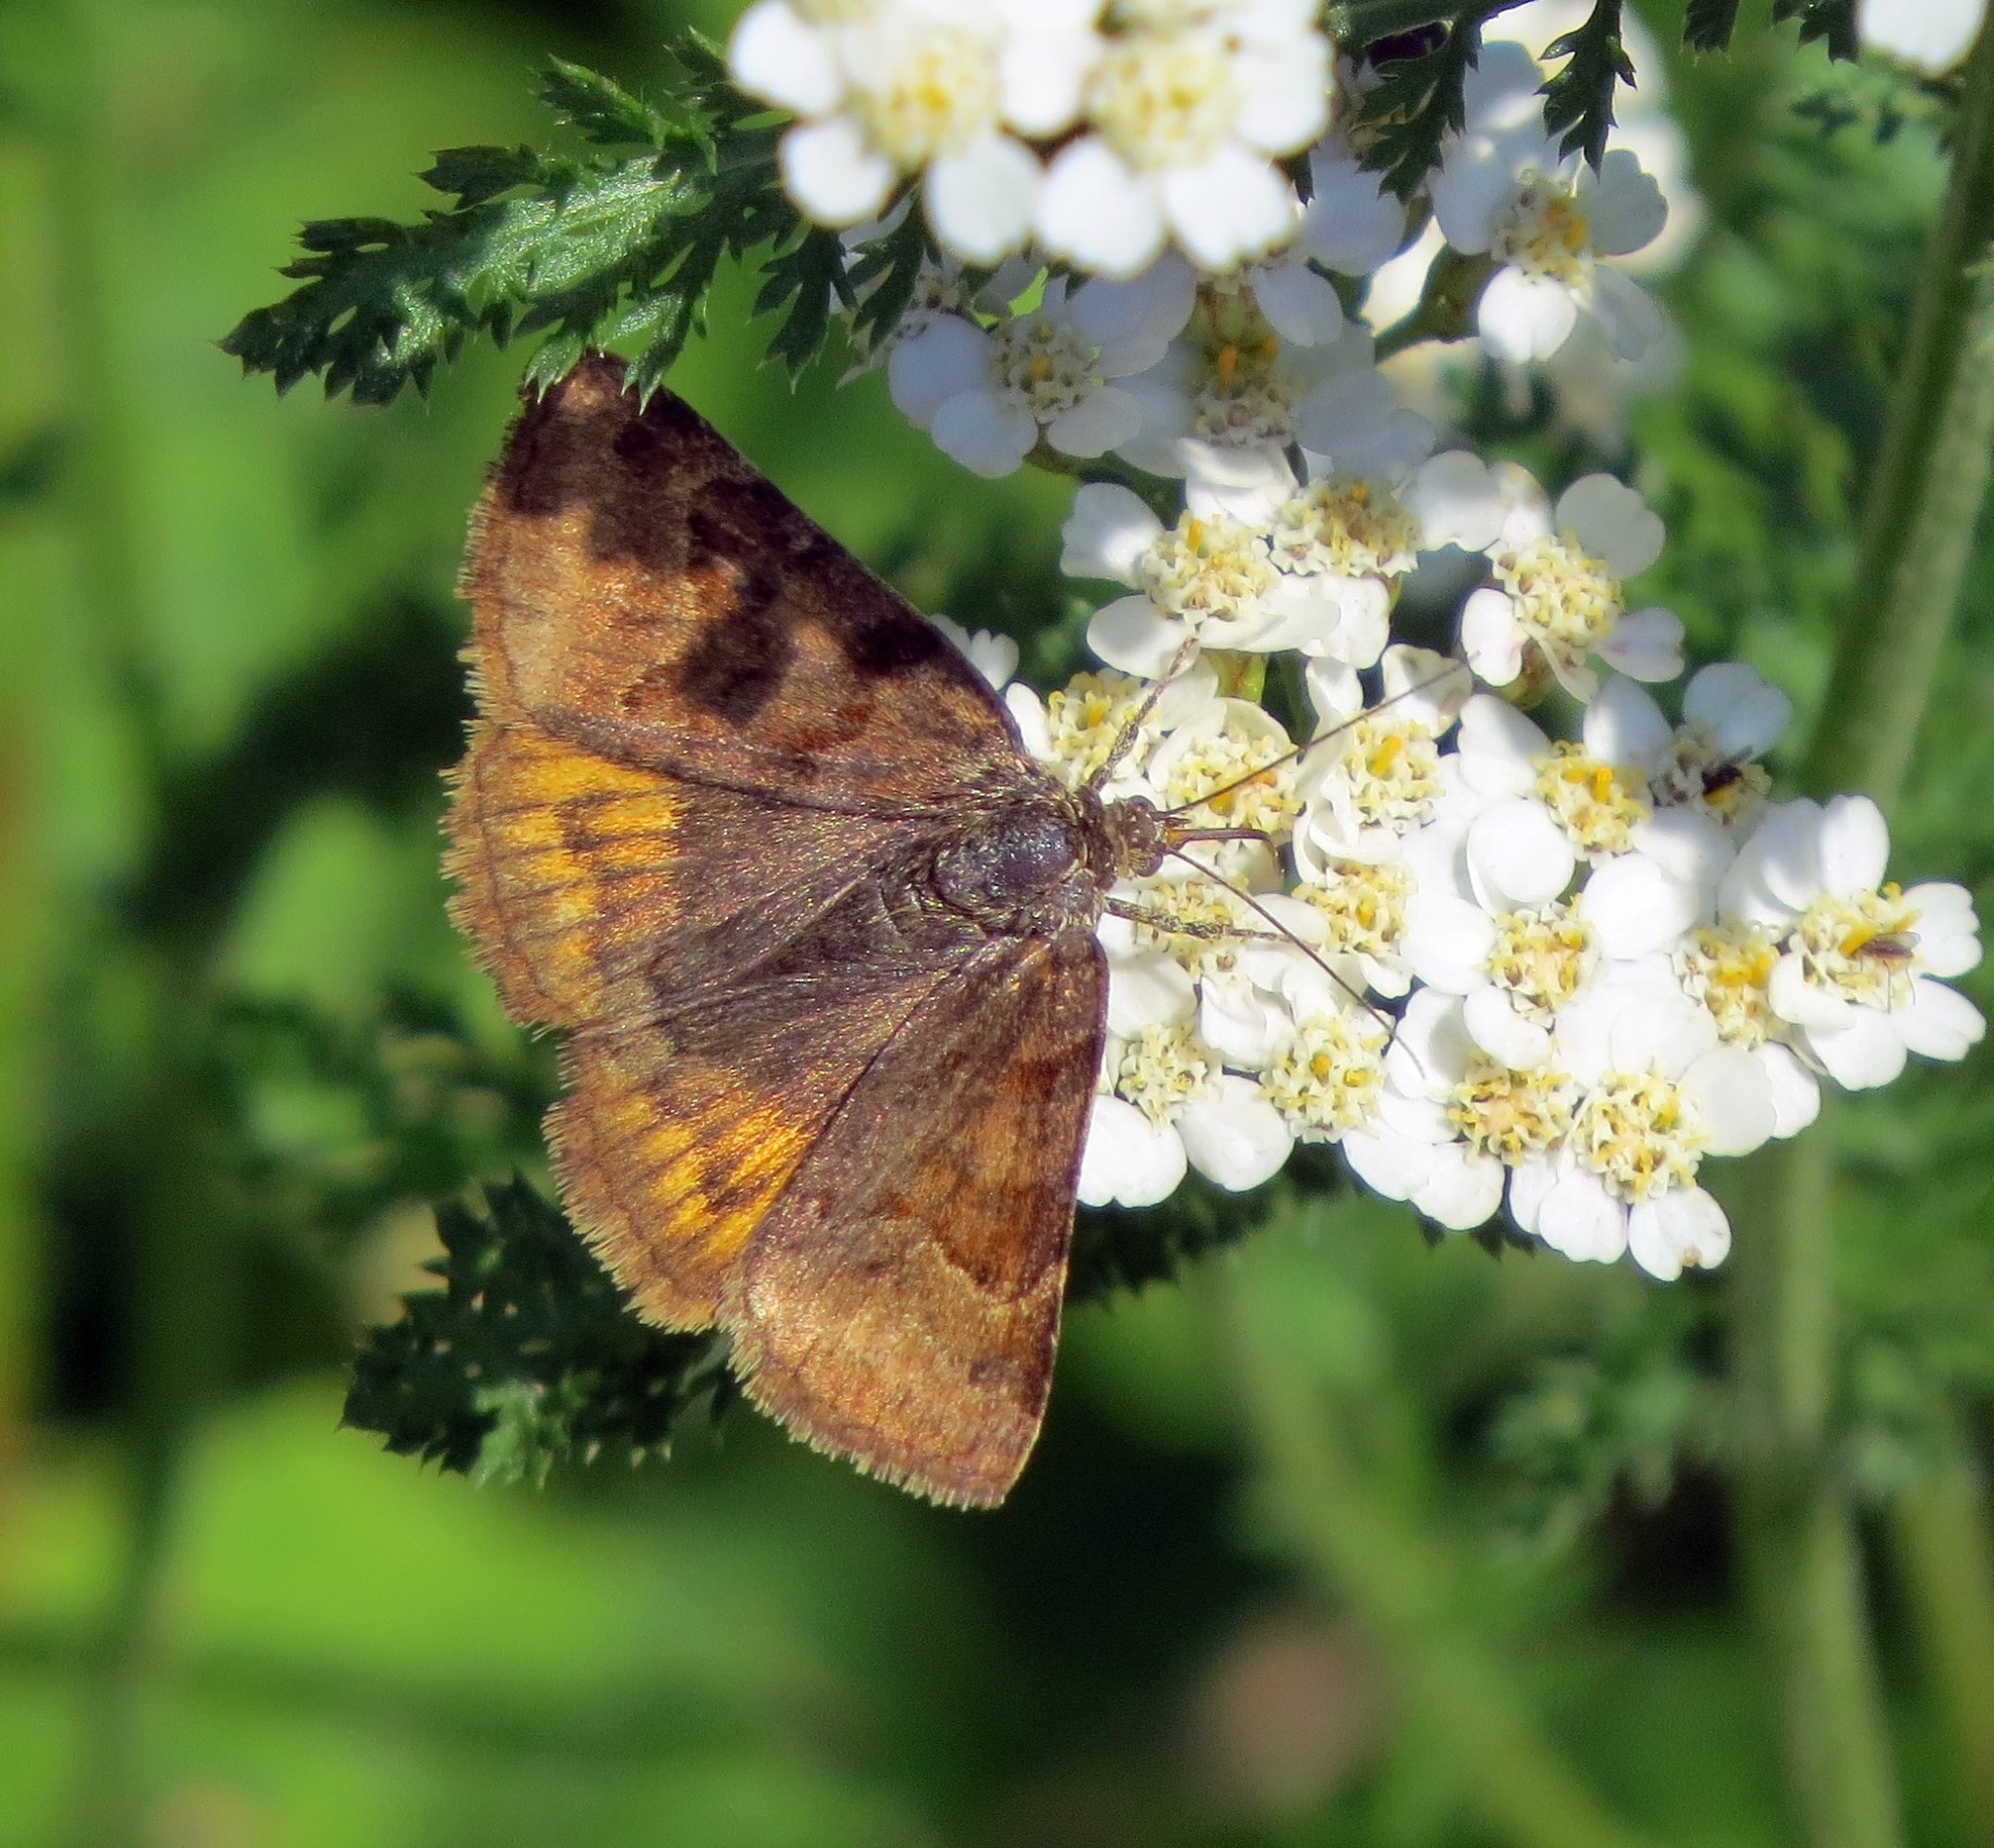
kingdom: Animalia
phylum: Arthropoda
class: Insecta
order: Lepidoptera
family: Erebidae
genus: Euclidia
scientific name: Euclidia glyphica
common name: Burnet companion
